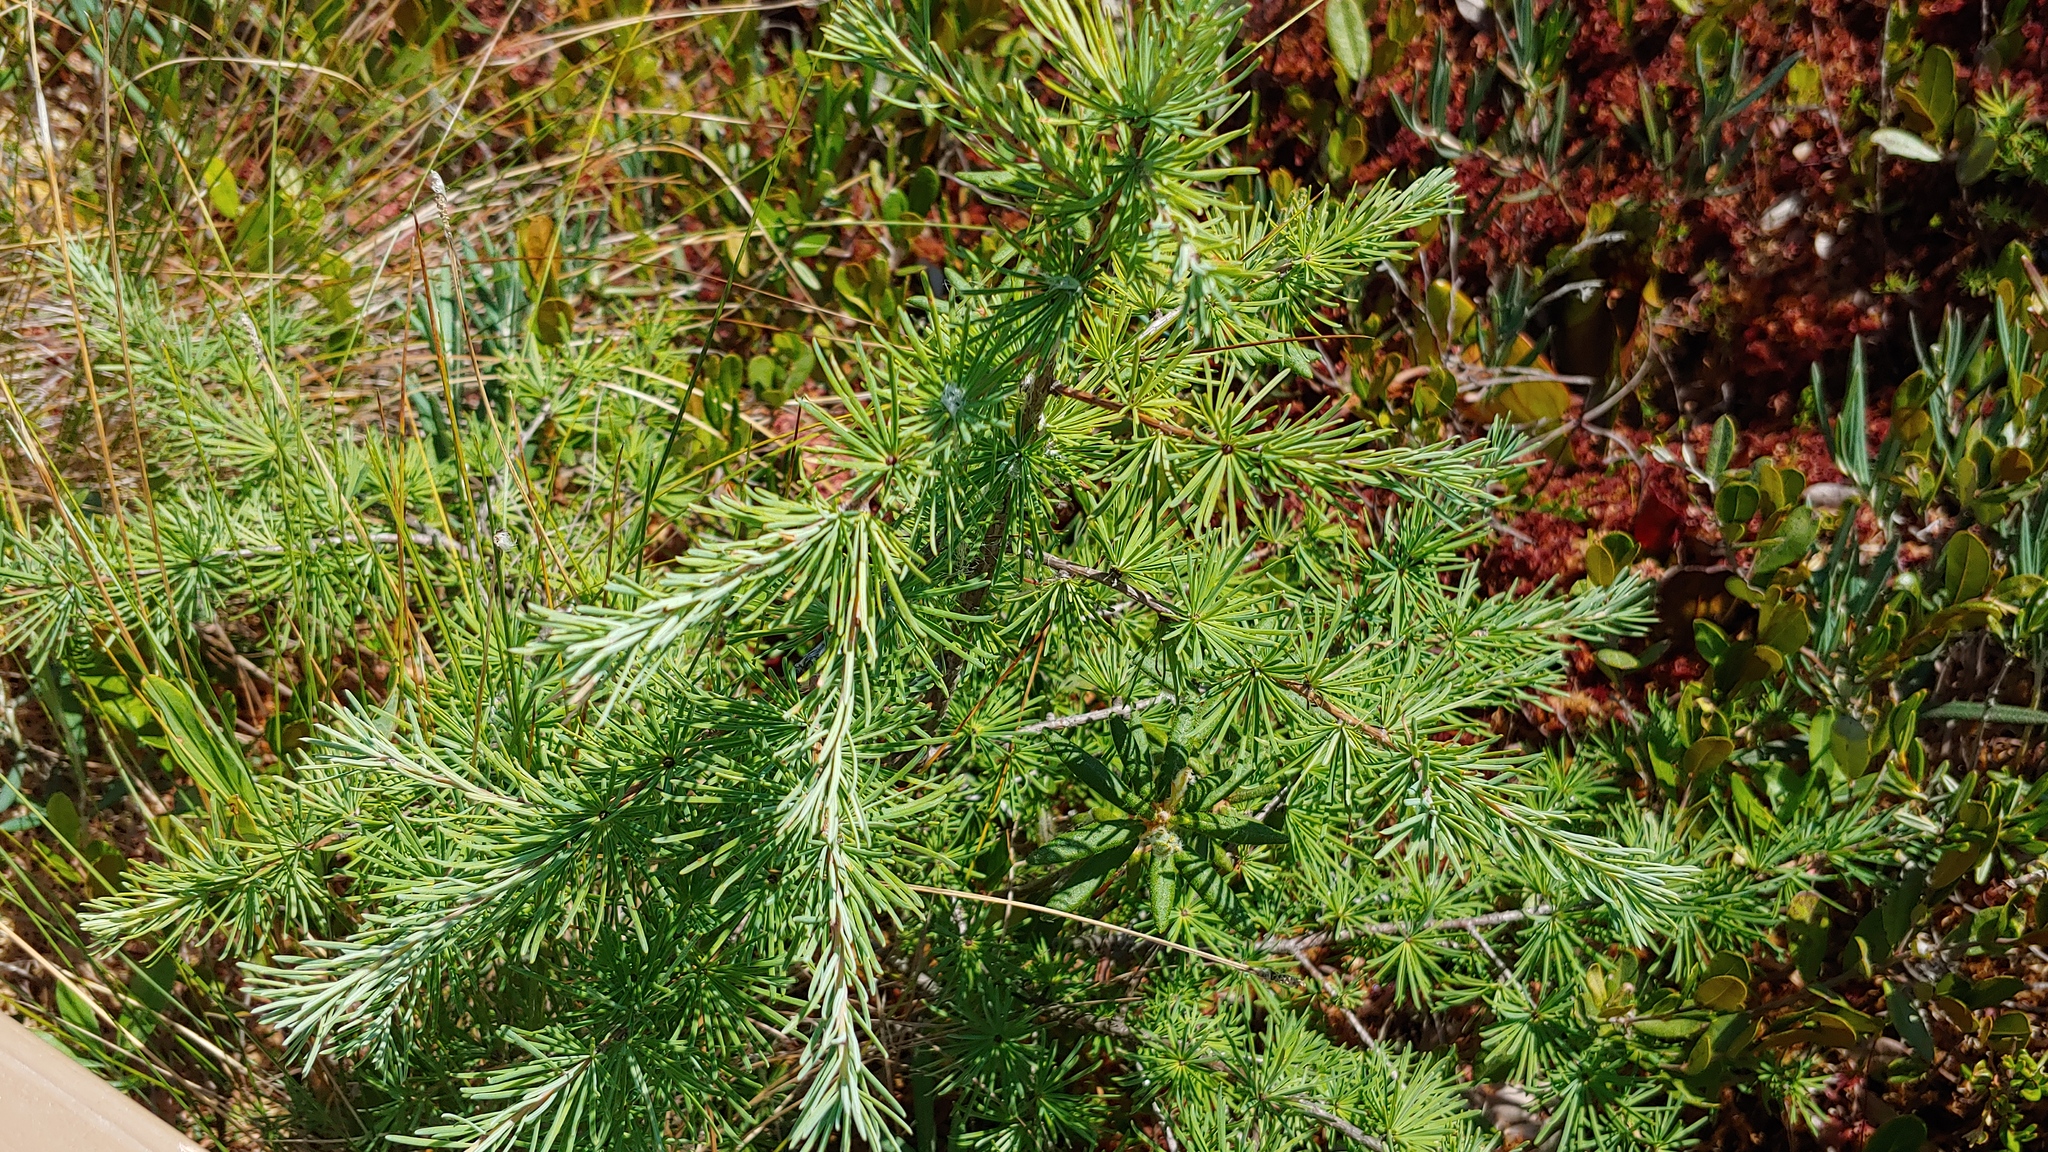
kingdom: Plantae
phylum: Tracheophyta
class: Pinopsida
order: Pinales
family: Pinaceae
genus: Larix
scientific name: Larix laricina
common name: American larch
